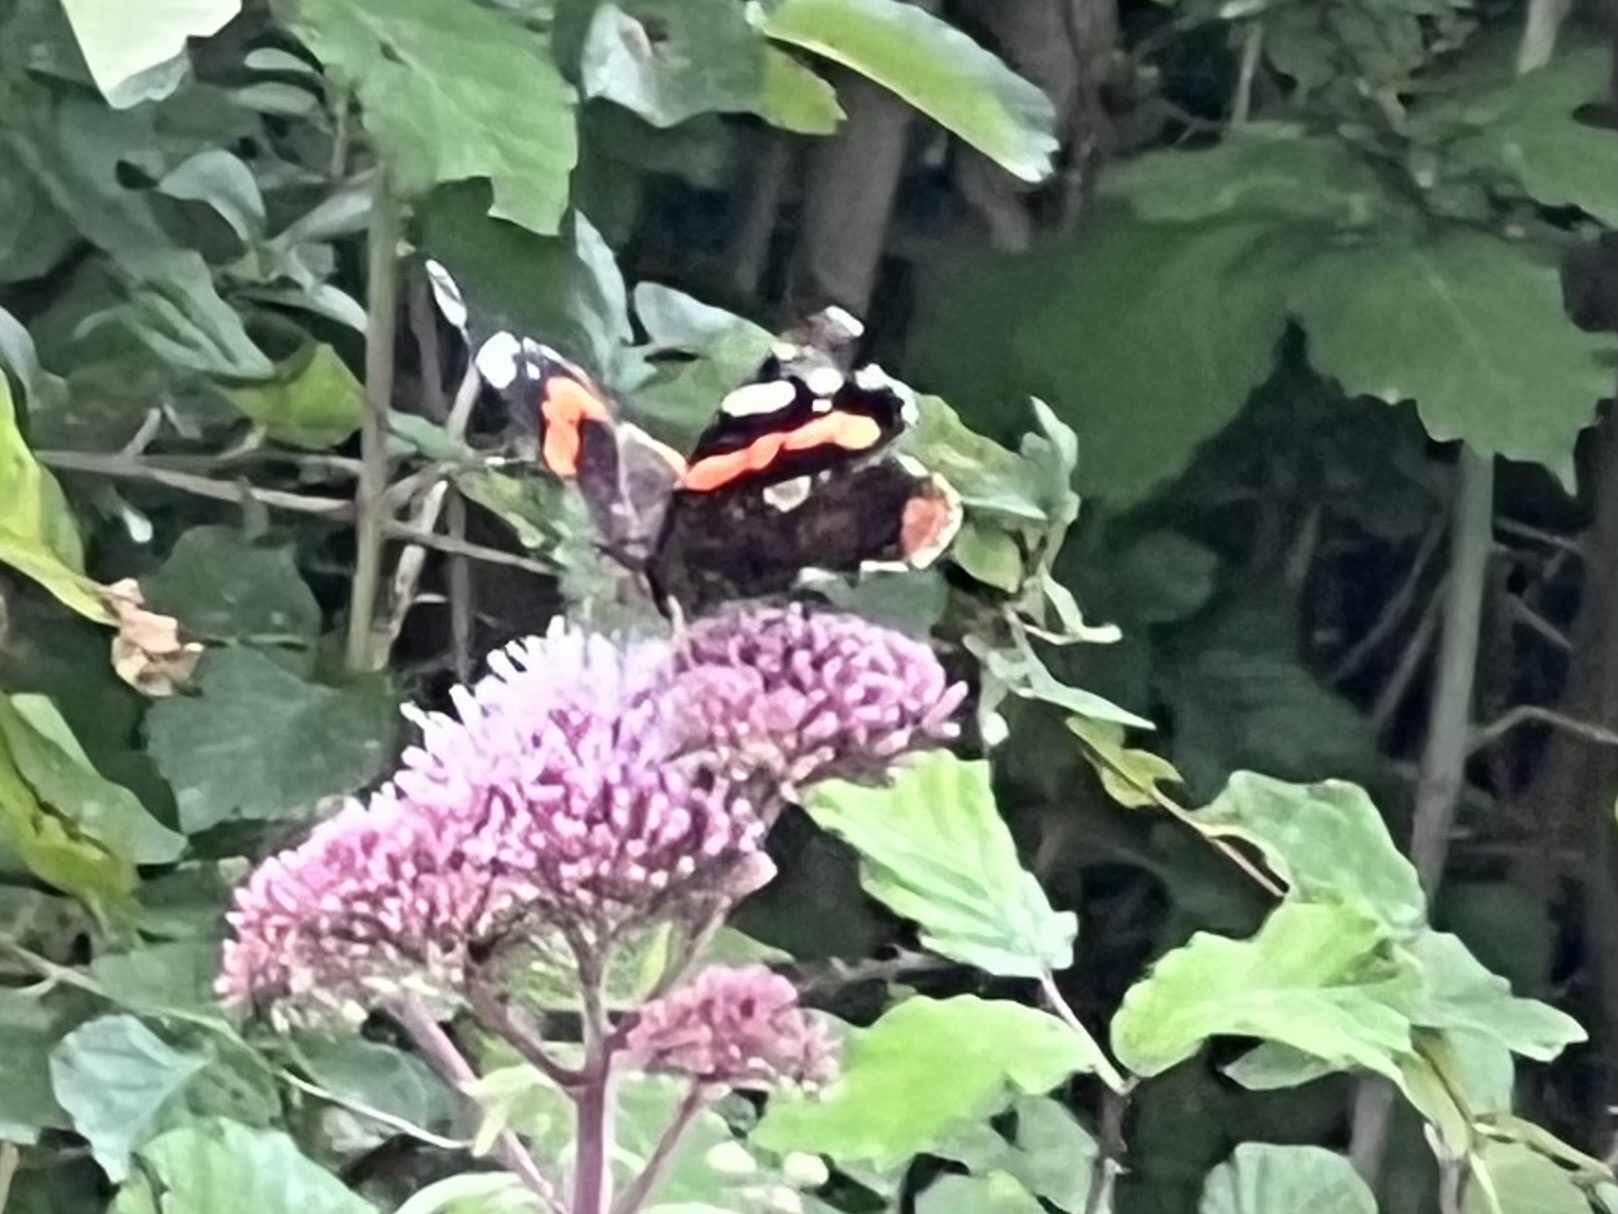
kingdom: Animalia
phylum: Arthropoda
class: Insecta
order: Lepidoptera
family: Nymphalidae
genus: Vanessa
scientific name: Vanessa atalanta
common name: Red admiral
